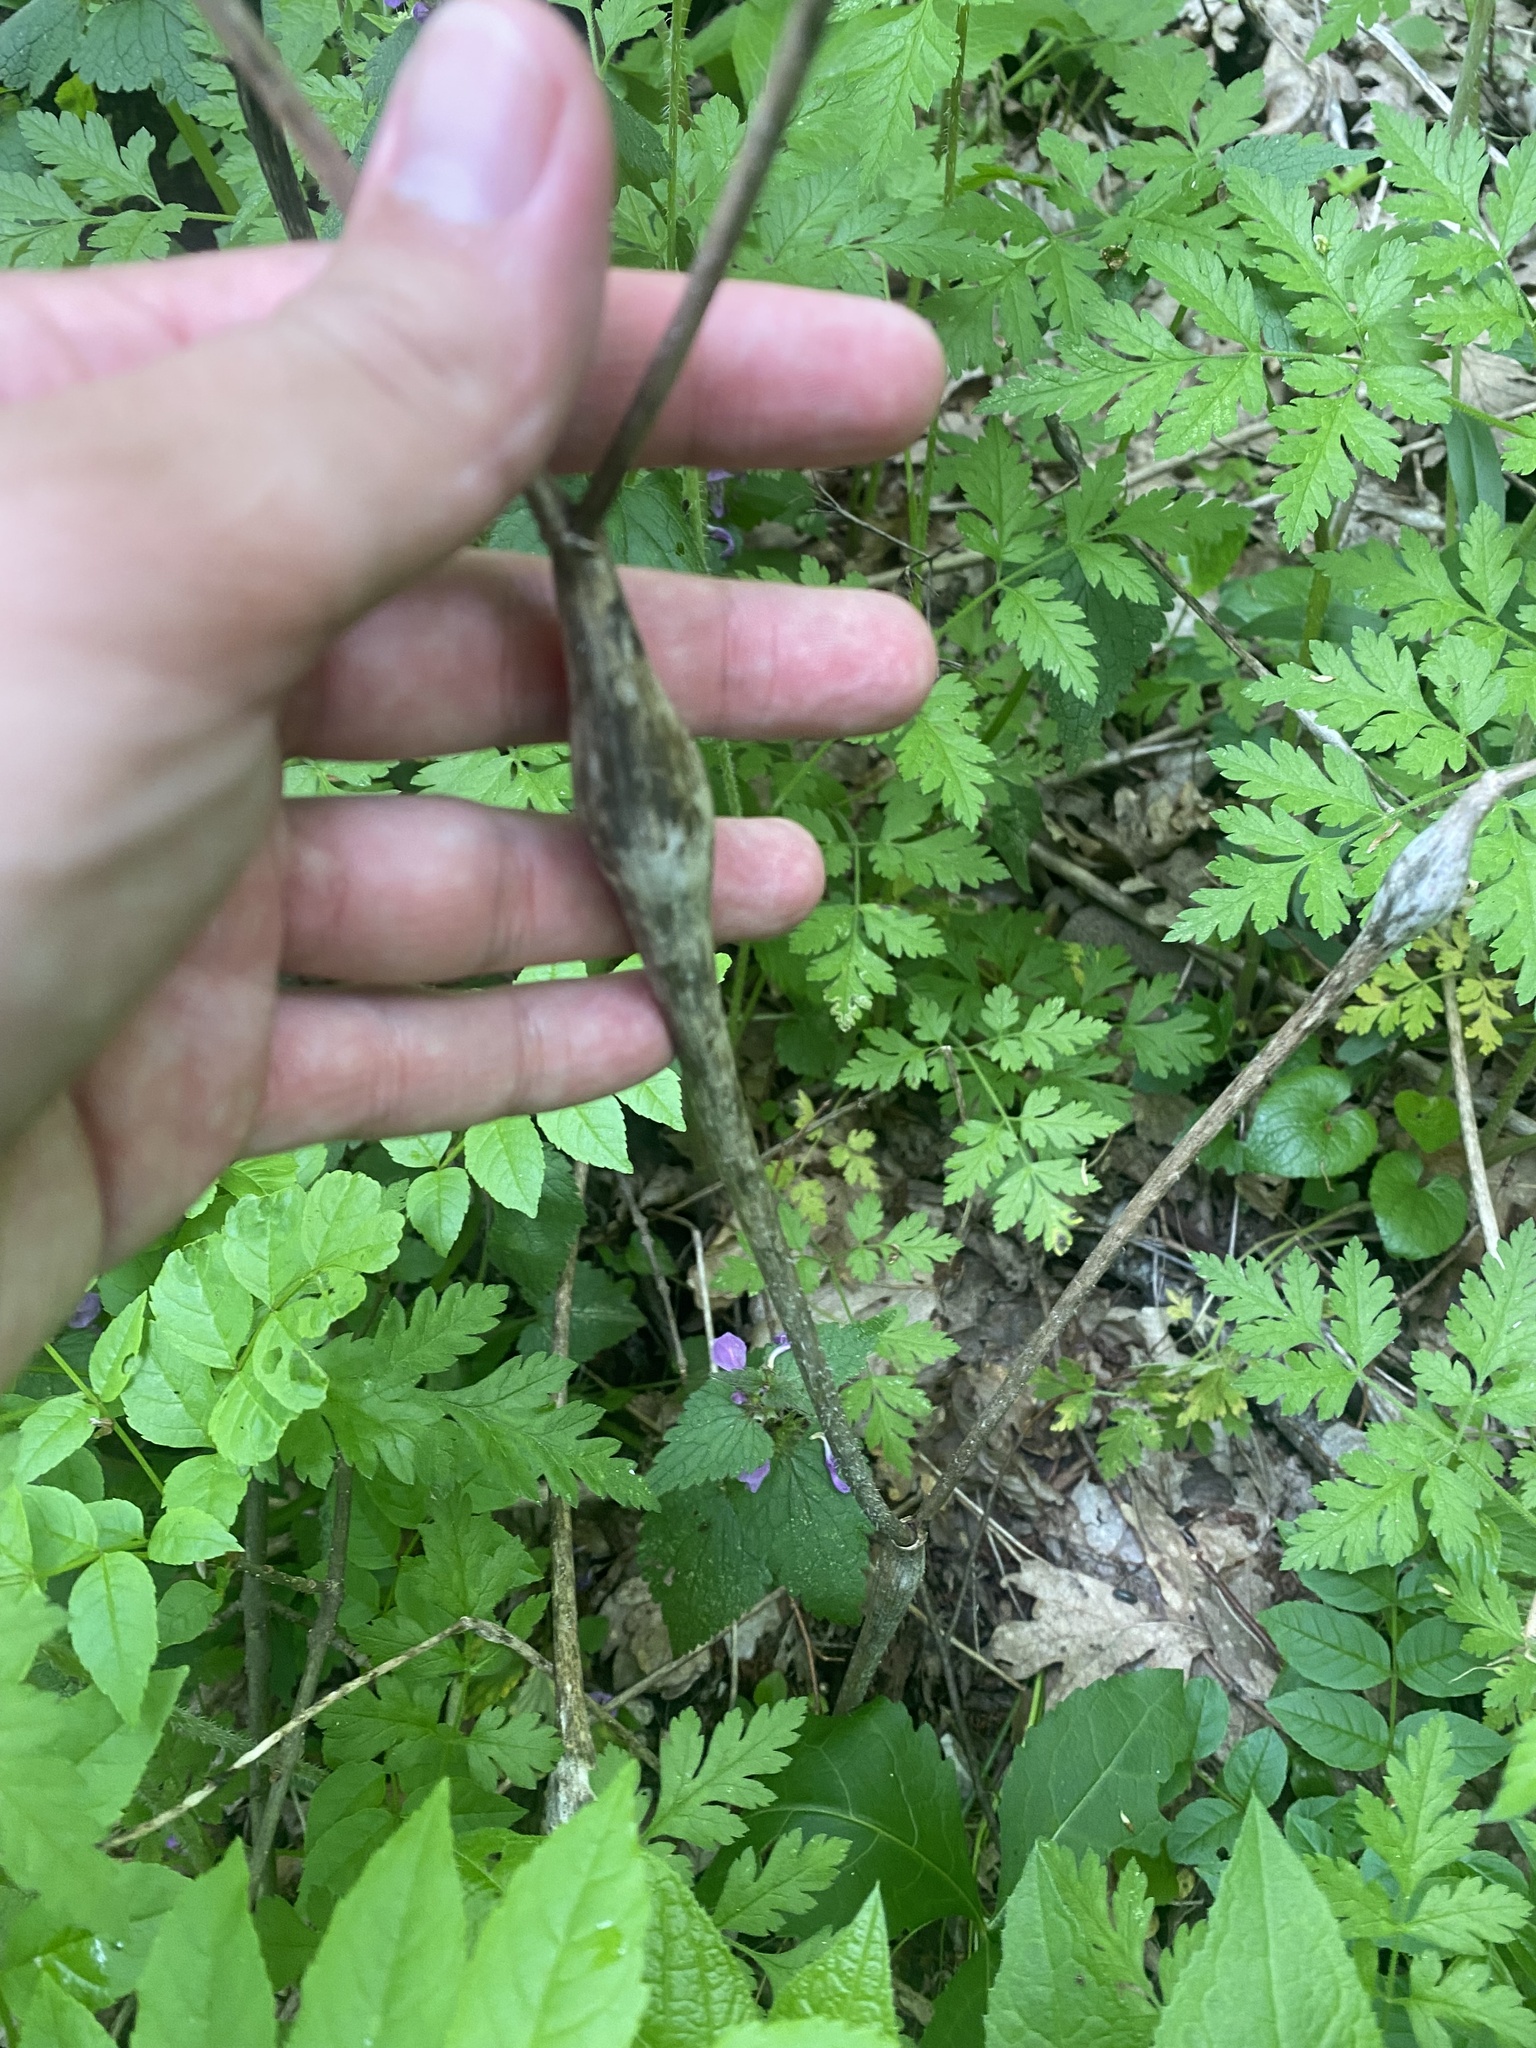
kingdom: Plantae
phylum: Tracheophyta
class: Magnoliopsida
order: Apiales
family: Apiaceae
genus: Chaerophyllum
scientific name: Chaerophyllum nodosum
